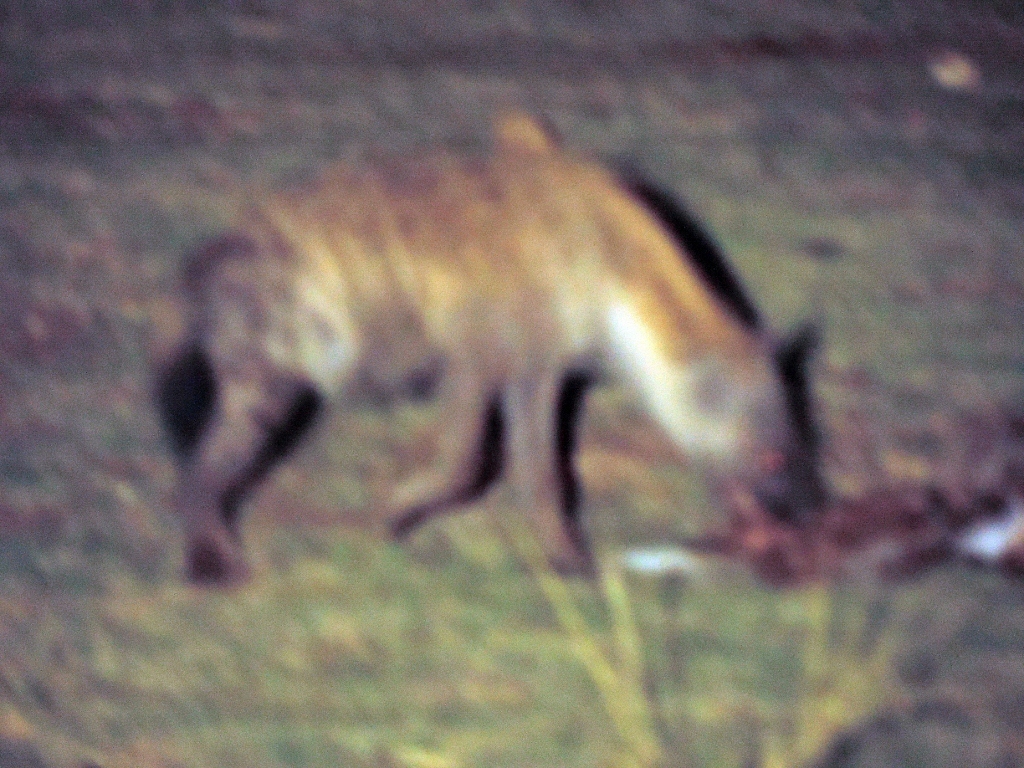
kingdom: Animalia
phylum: Chordata
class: Mammalia
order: Carnivora
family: Hyaenidae
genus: Crocuta
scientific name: Crocuta crocuta
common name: Spotted hyaena
